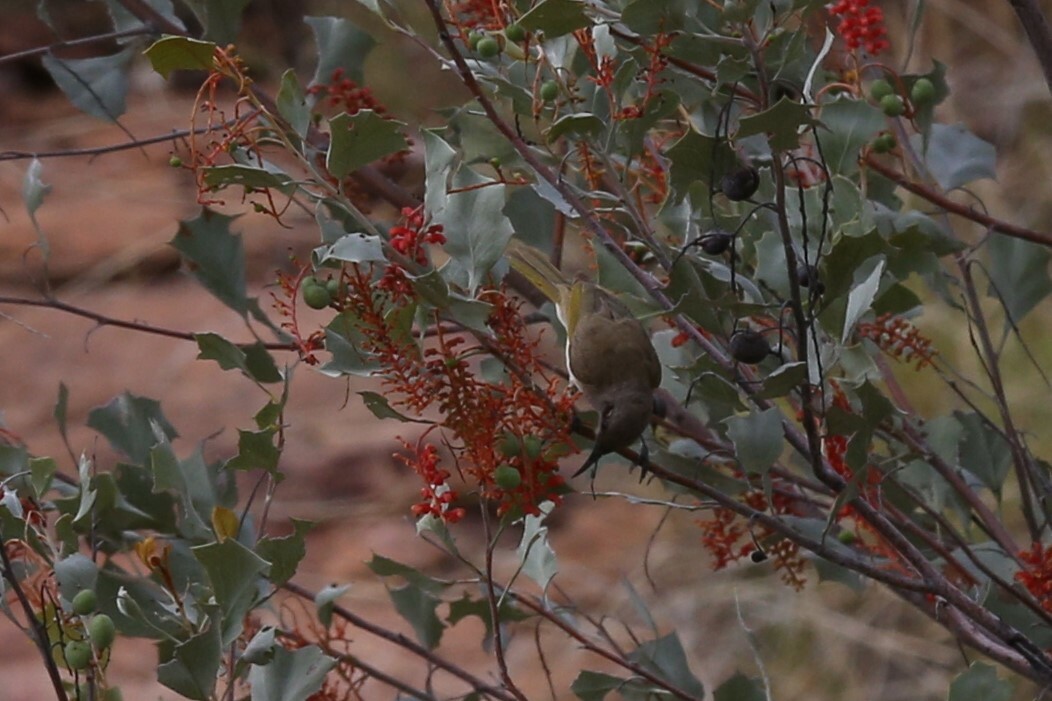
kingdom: Animalia
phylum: Chordata
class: Aves
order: Passeriformes
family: Meliphagidae
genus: Lichmera
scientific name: Lichmera indistincta
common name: Brown honeyeater
